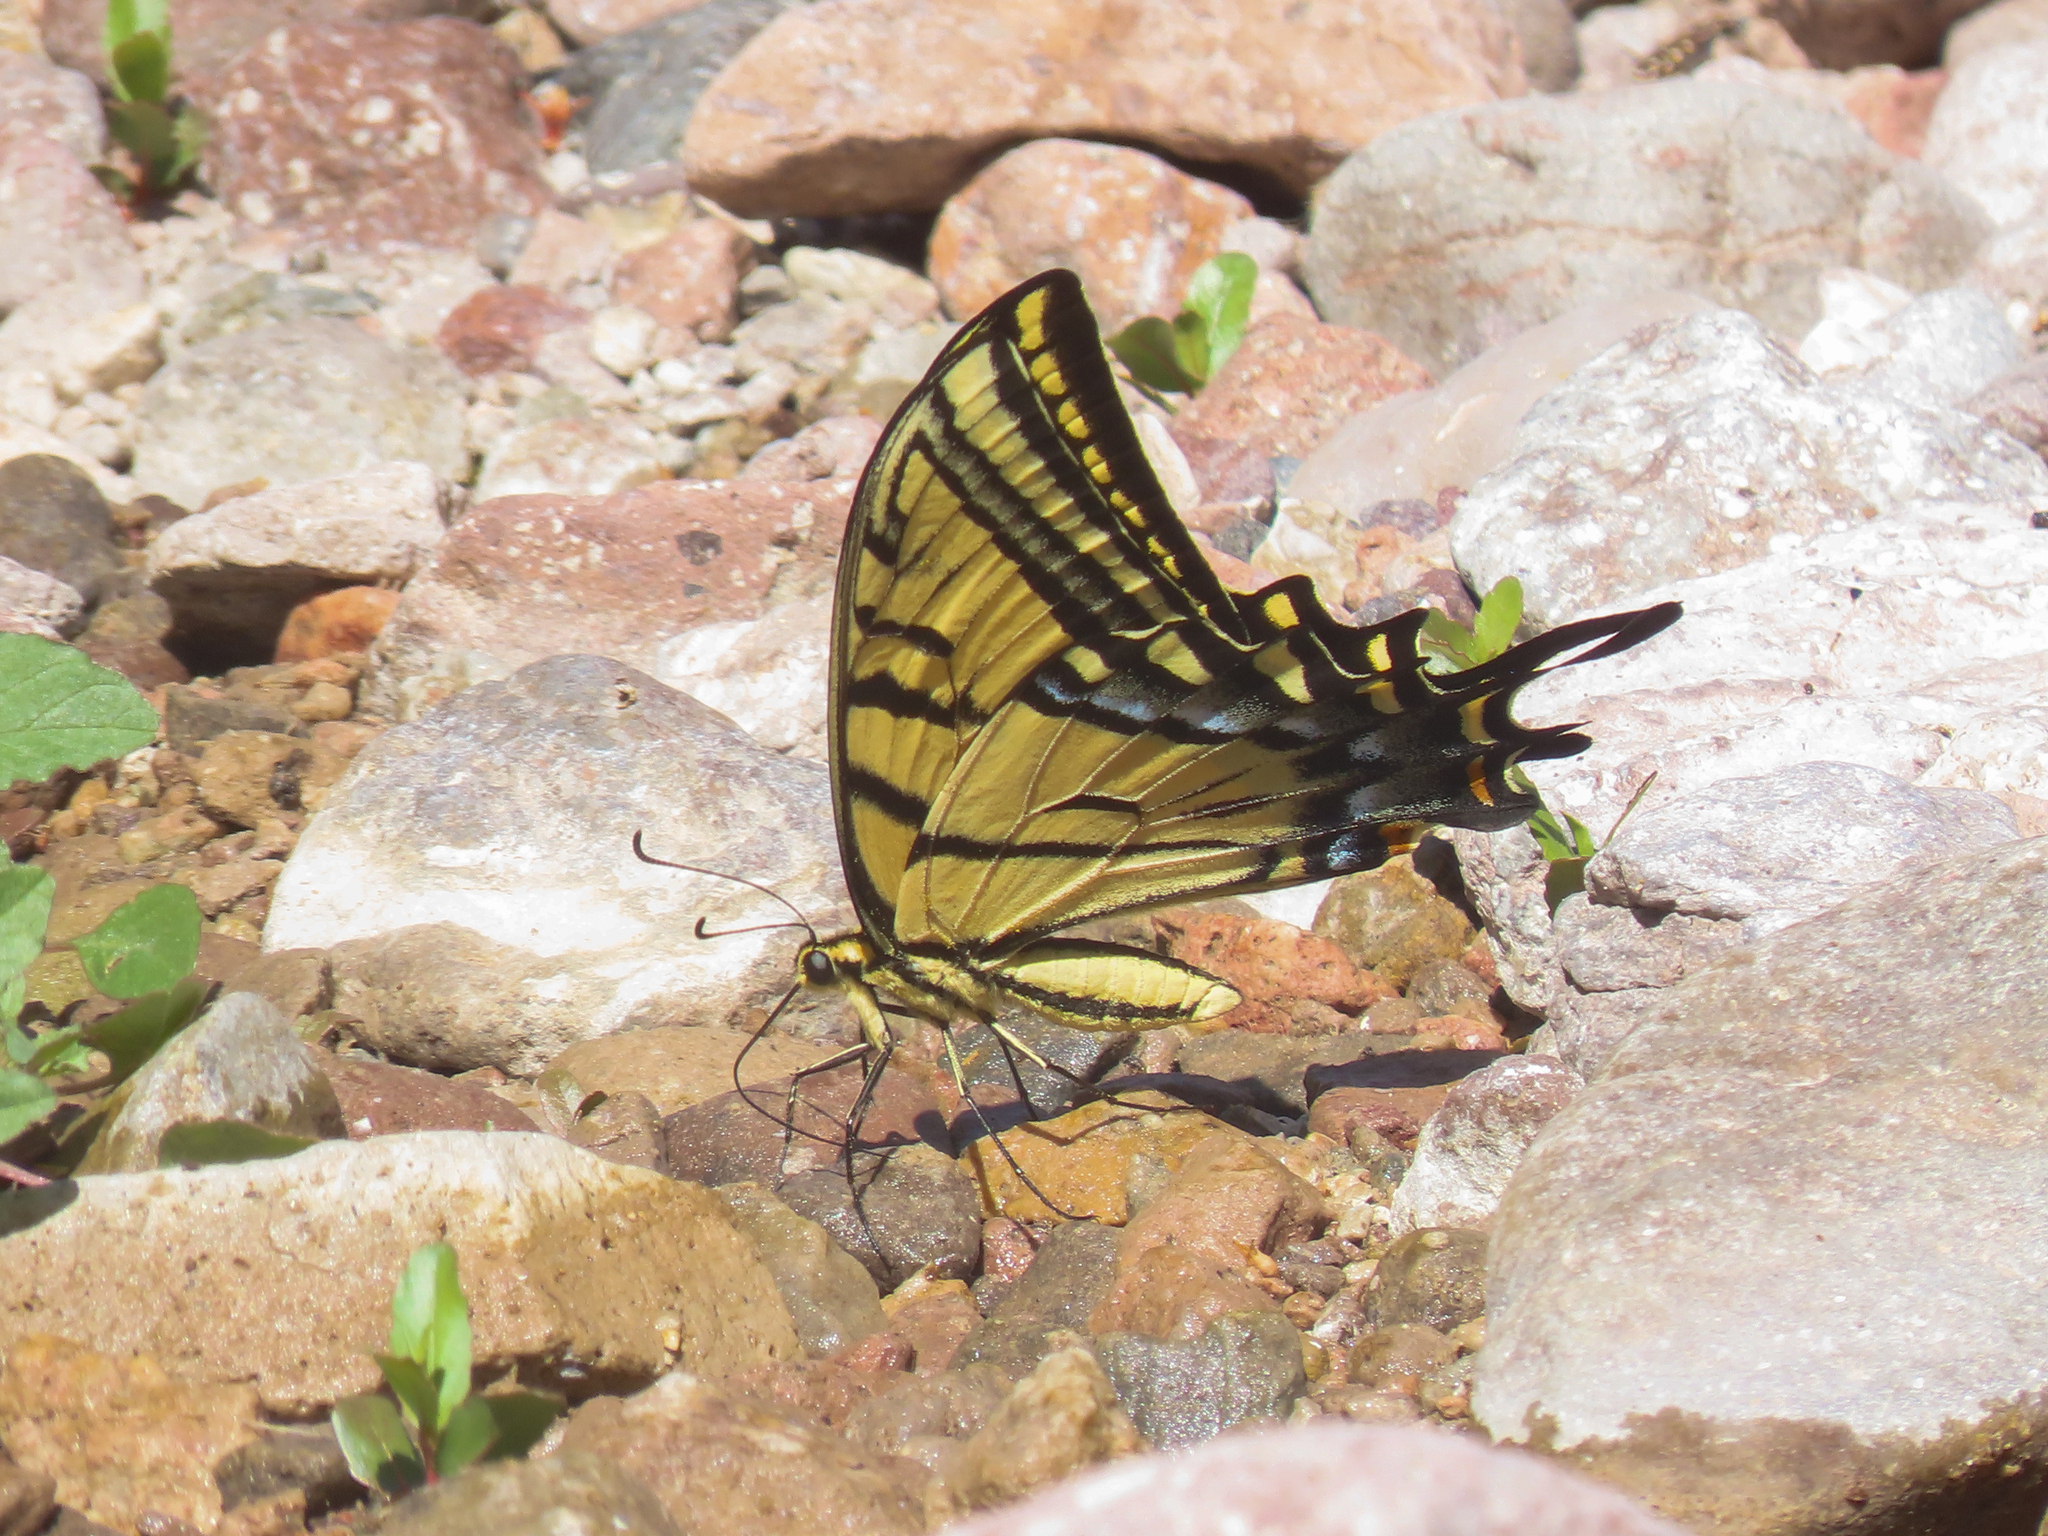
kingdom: Animalia
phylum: Arthropoda
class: Insecta
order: Lepidoptera
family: Papilionidae
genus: Papilio
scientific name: Papilio multicaudata
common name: Two-tailed tiger swallowtail
